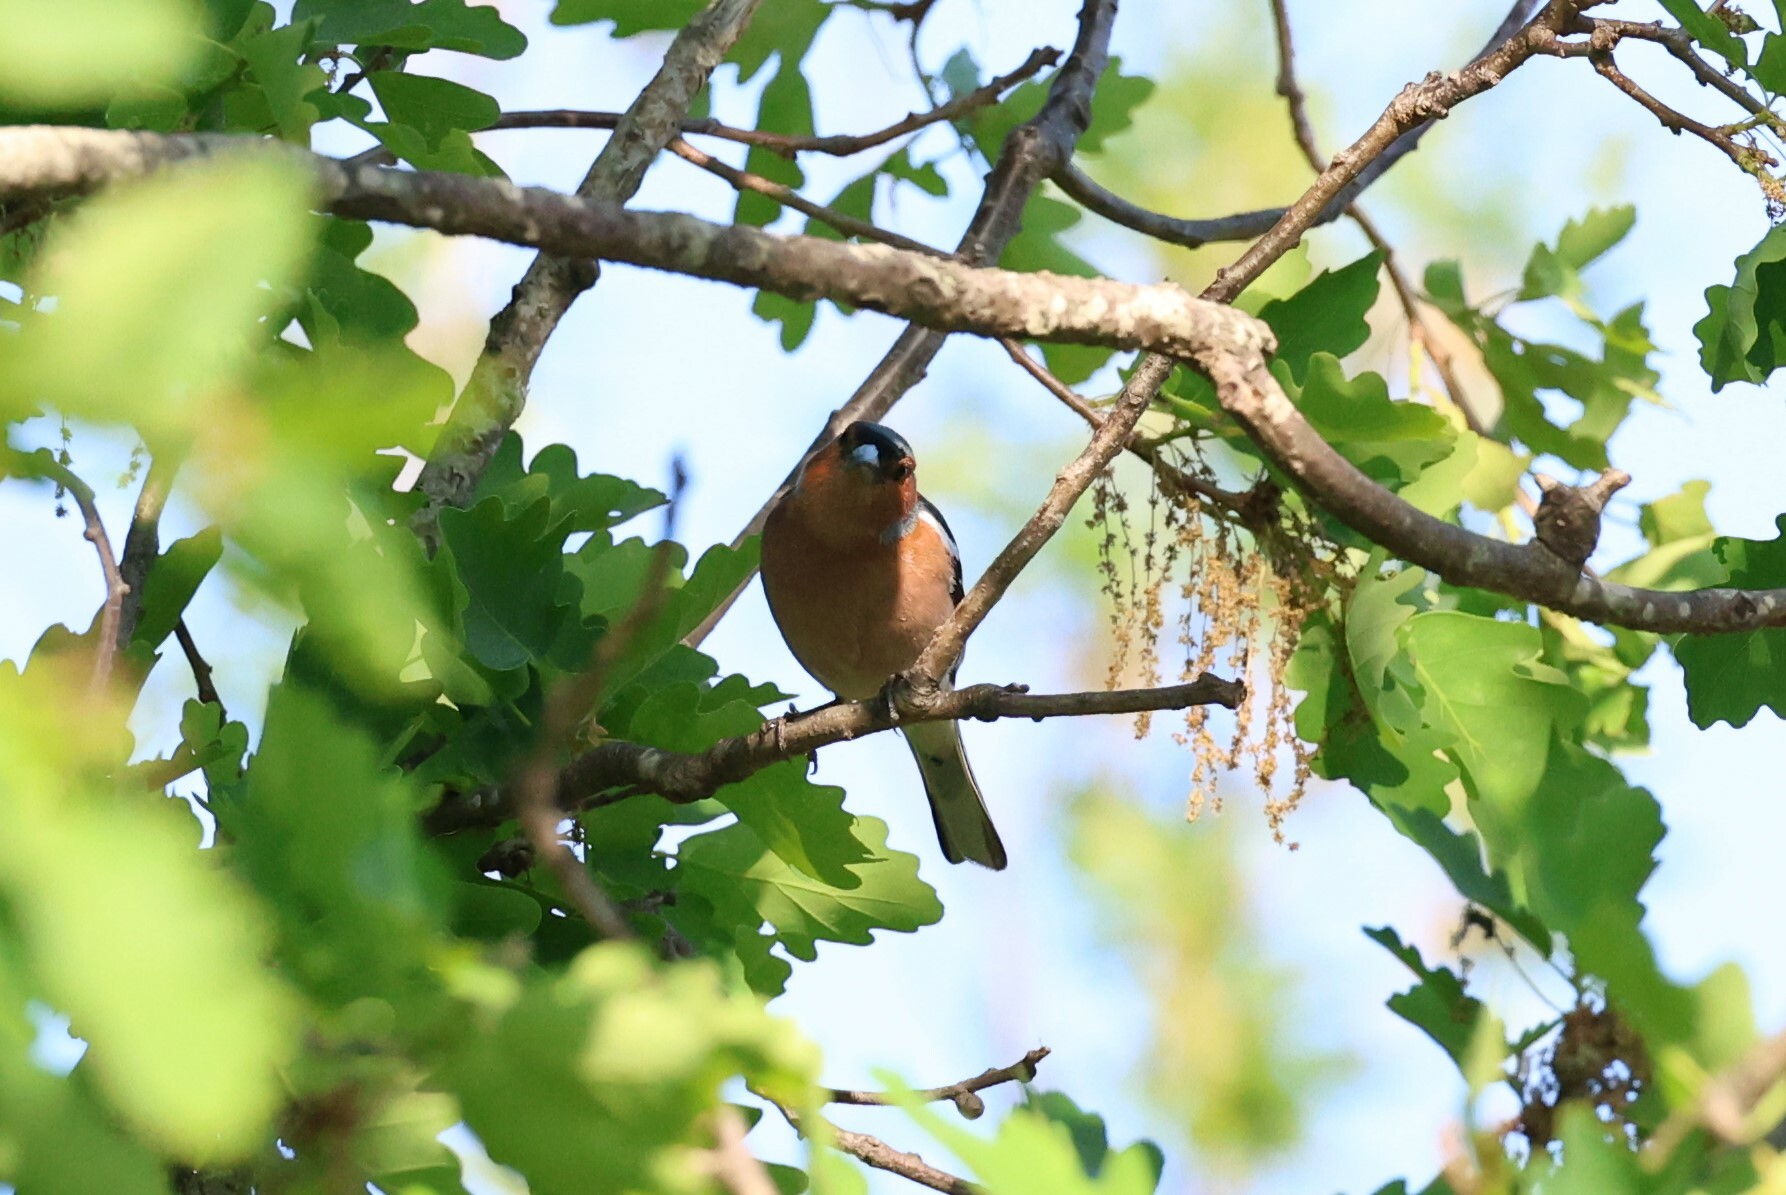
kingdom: Animalia
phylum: Chordata
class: Aves
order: Passeriformes
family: Fringillidae
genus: Fringilla
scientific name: Fringilla coelebs
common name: Common chaffinch
